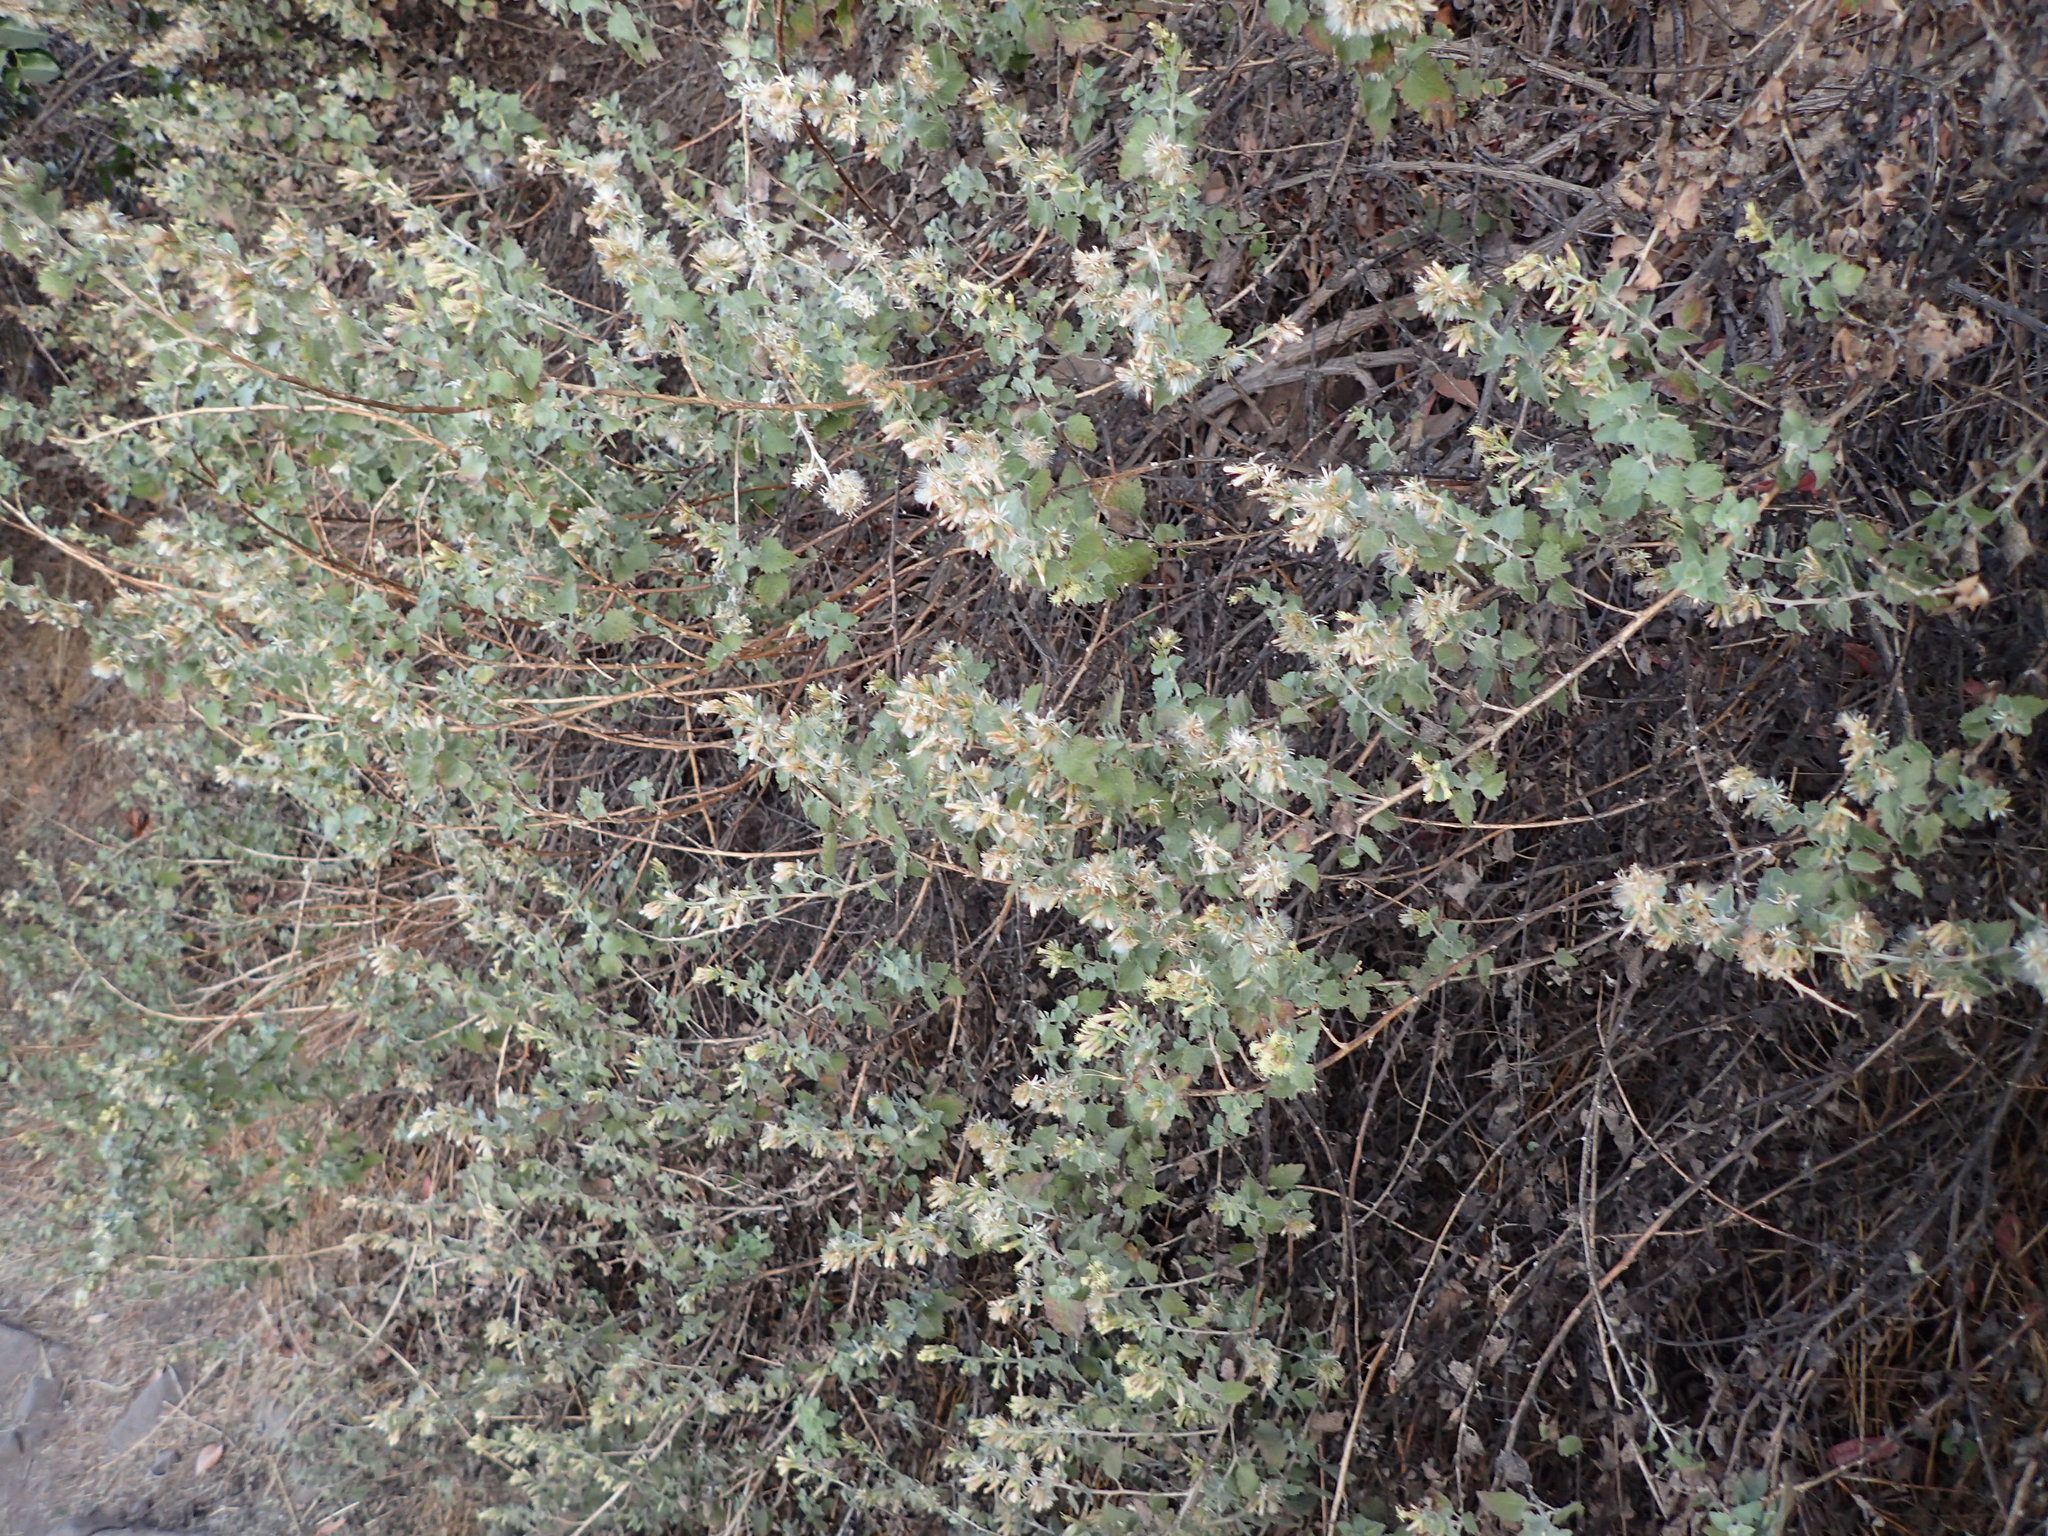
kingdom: Plantae
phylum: Tracheophyta
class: Magnoliopsida
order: Asterales
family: Asteraceae
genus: Brickellia
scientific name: Brickellia californica
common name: California brickellbush
